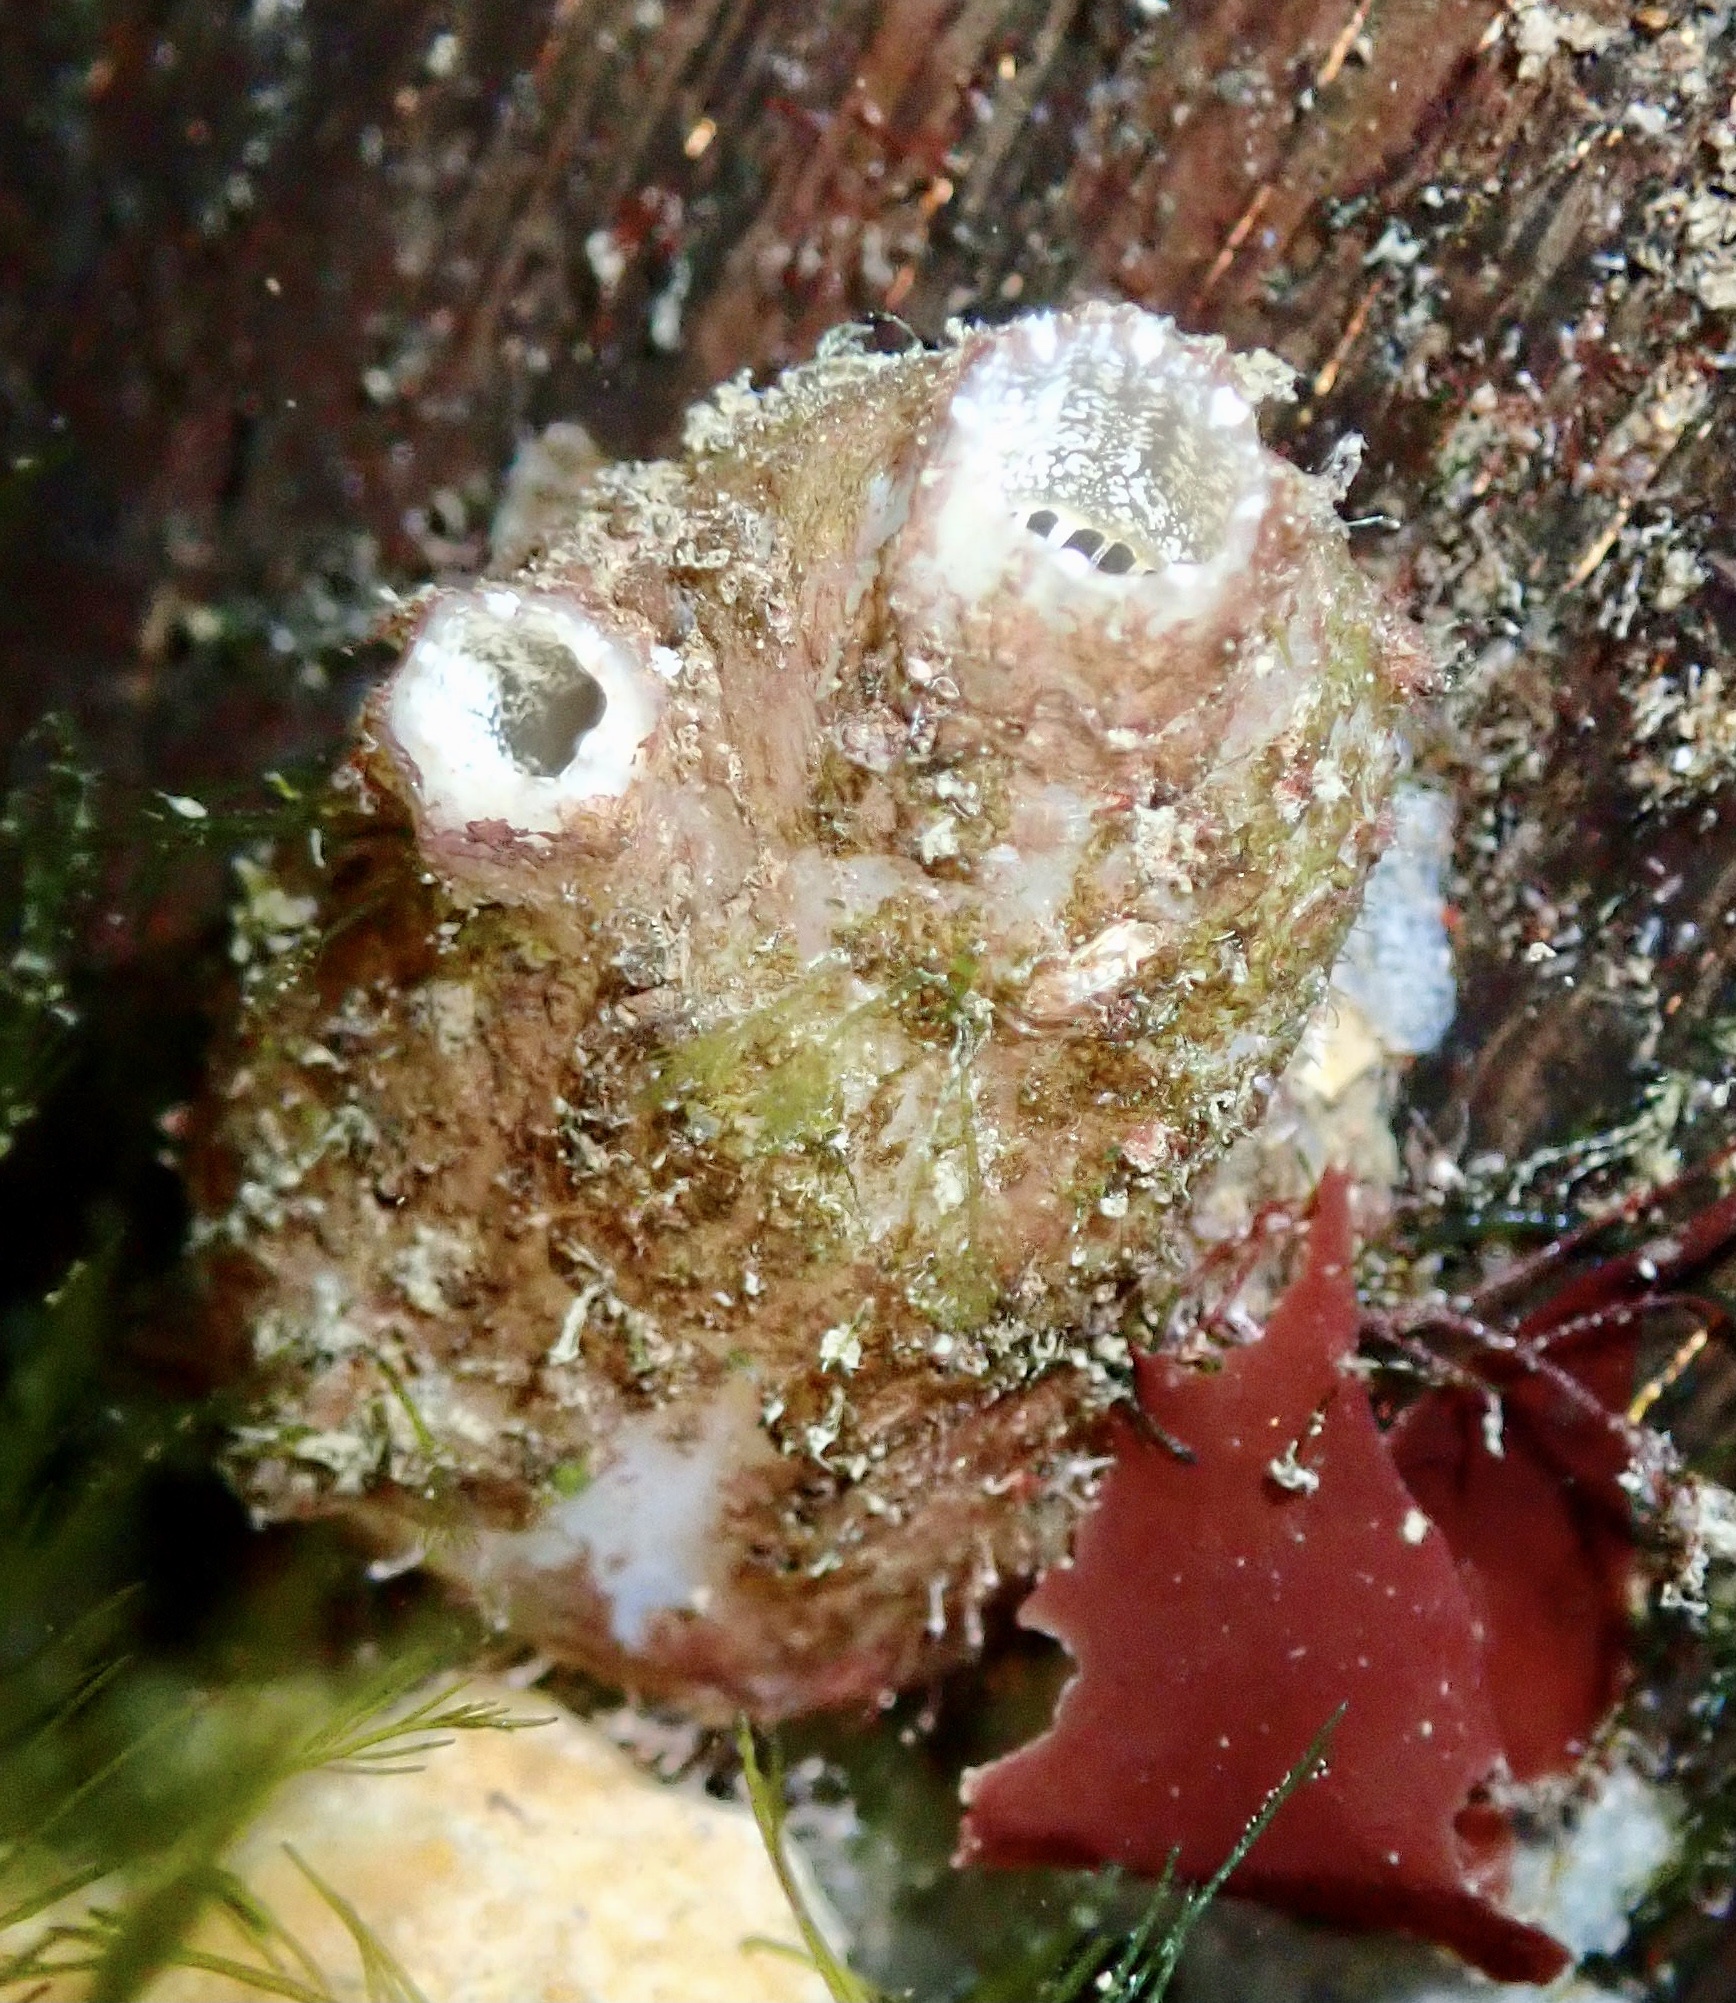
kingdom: Animalia
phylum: Chordata
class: Ascidiacea
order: Phlebobranchia
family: Ascidiidae
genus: Ascidiella
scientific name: Ascidiella aspersa
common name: Dirty sea-squirt
